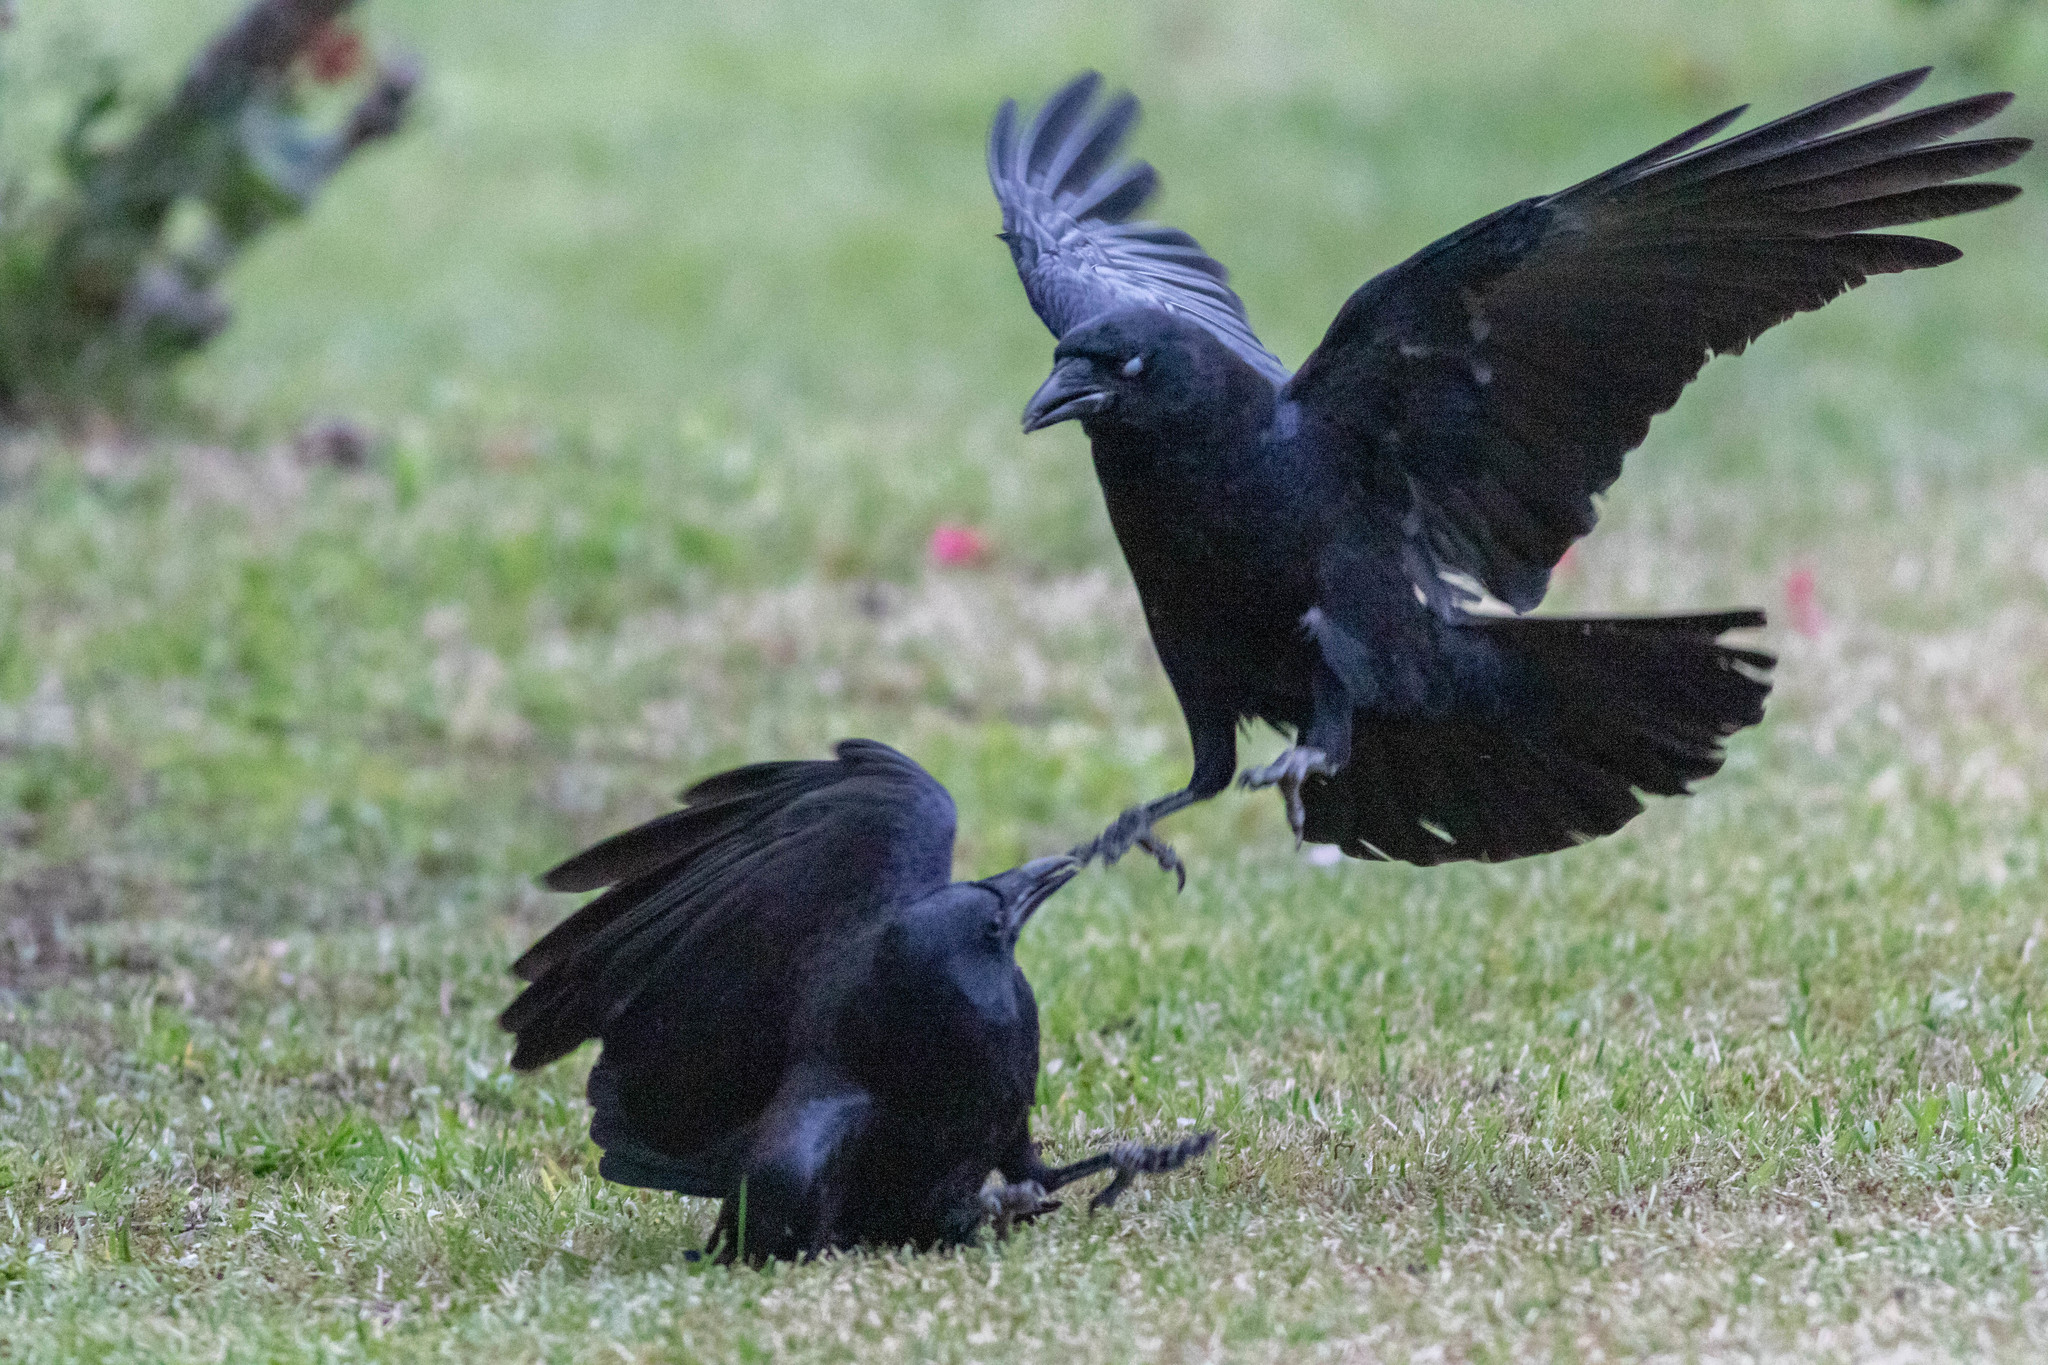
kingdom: Animalia
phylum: Chordata
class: Aves
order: Passeriformes
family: Corvidae
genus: Corvus
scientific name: Corvus brachyrhynchos
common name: American crow
